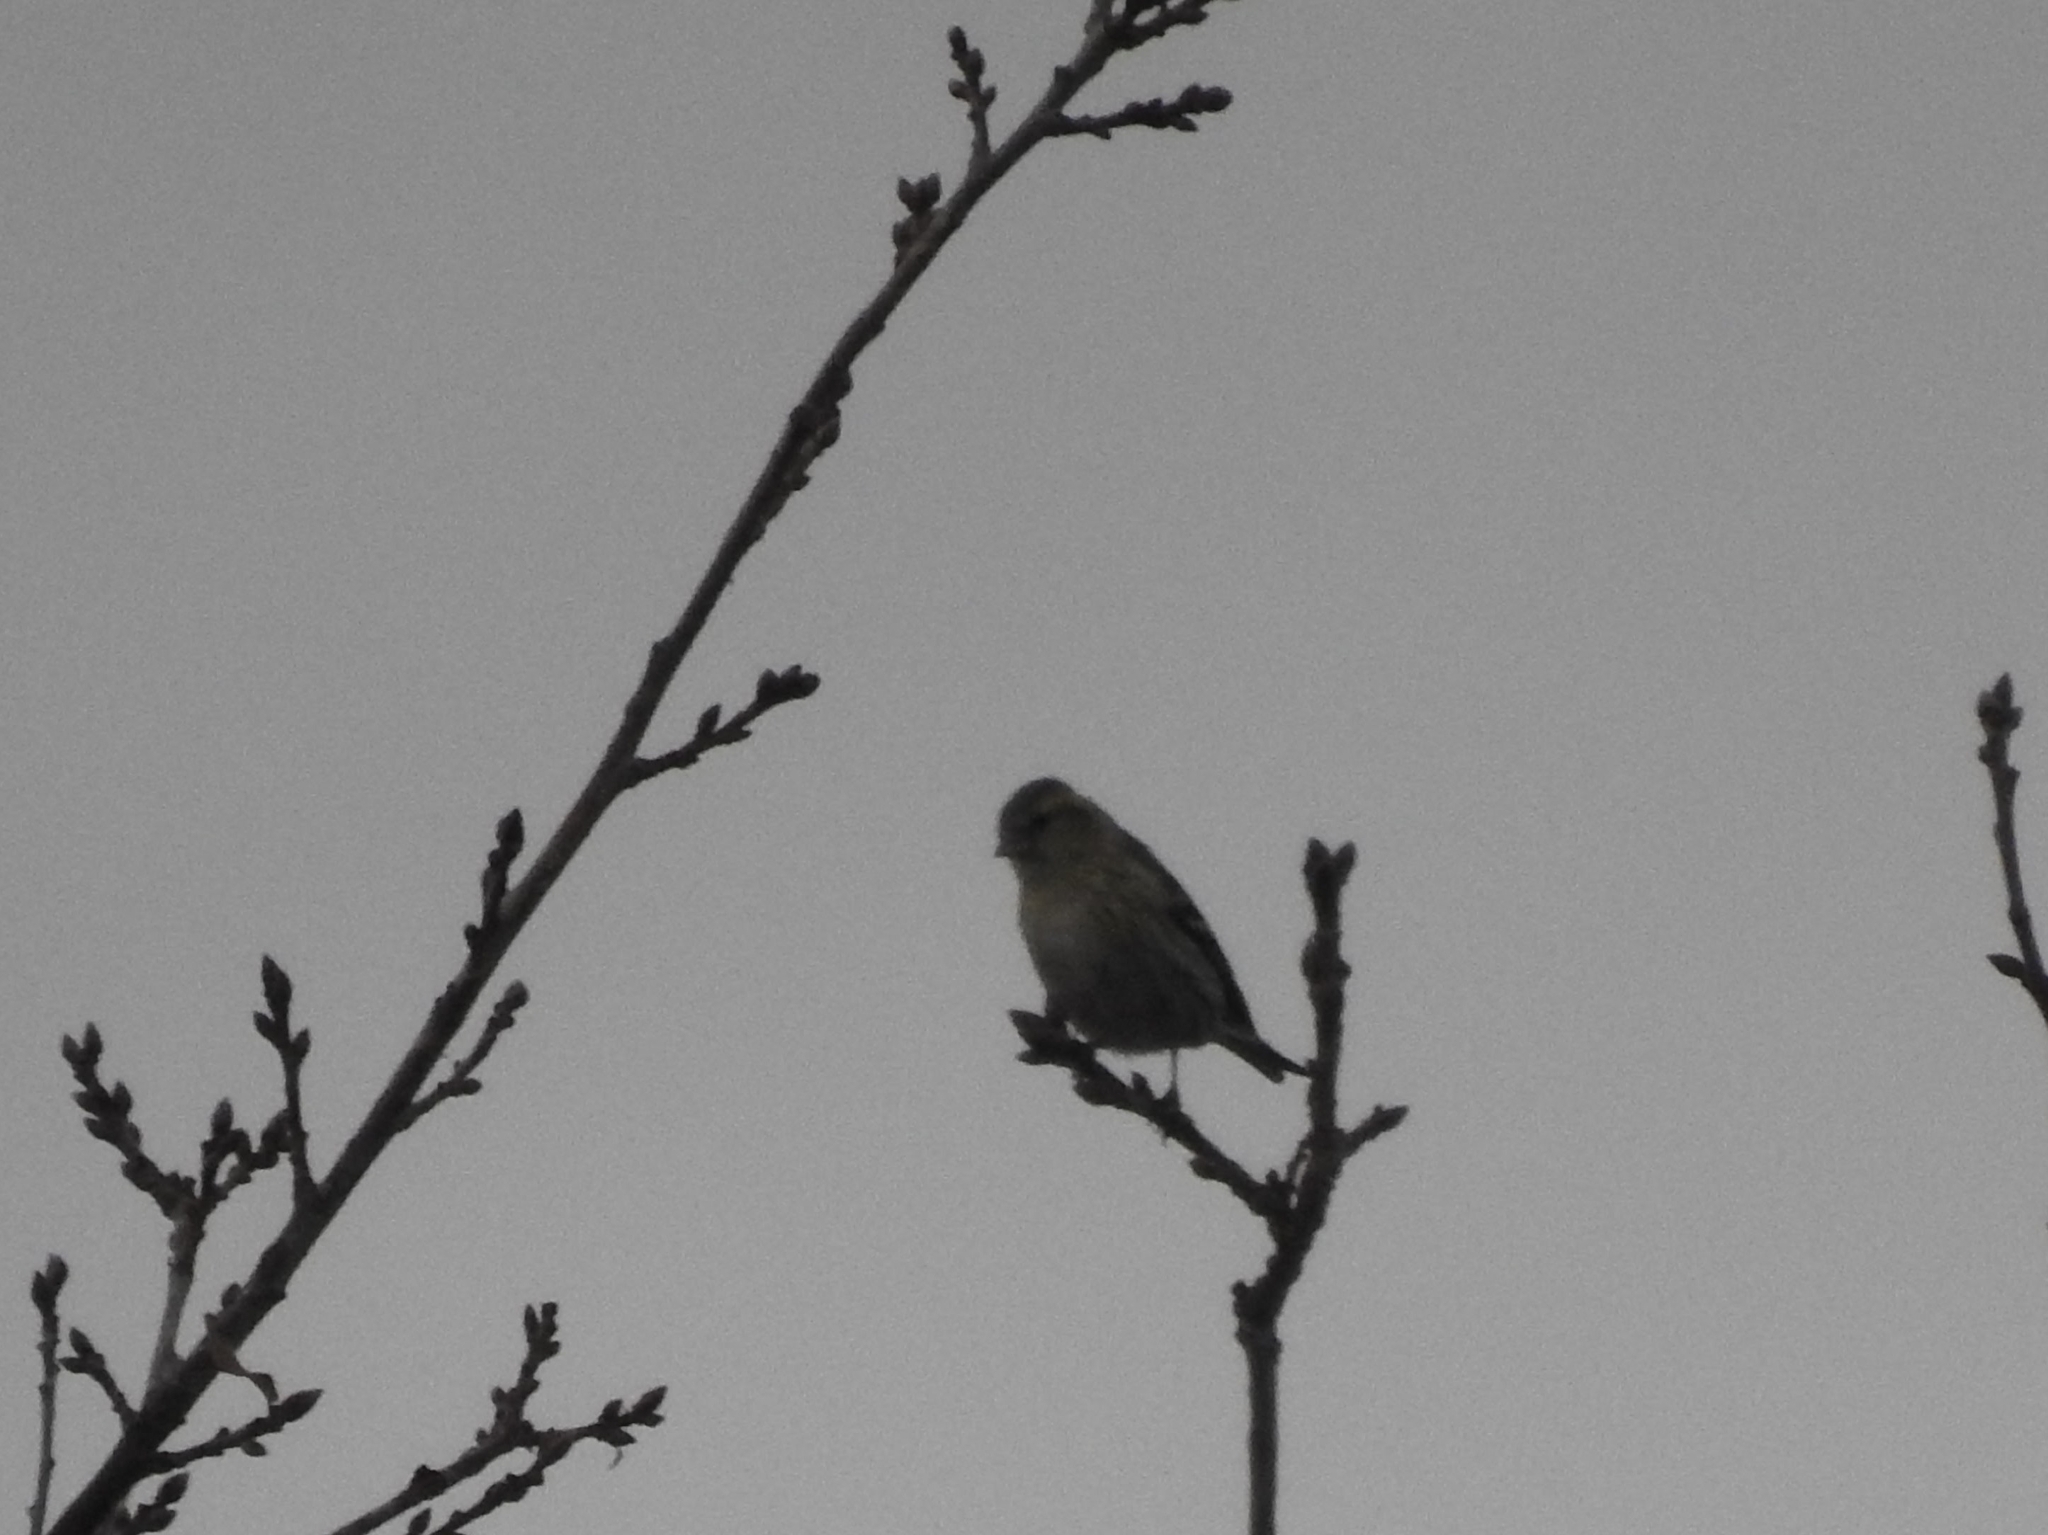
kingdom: Animalia
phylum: Chordata
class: Aves
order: Passeriformes
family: Fringillidae
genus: Spinus
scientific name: Spinus spinus
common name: Eurasian siskin
